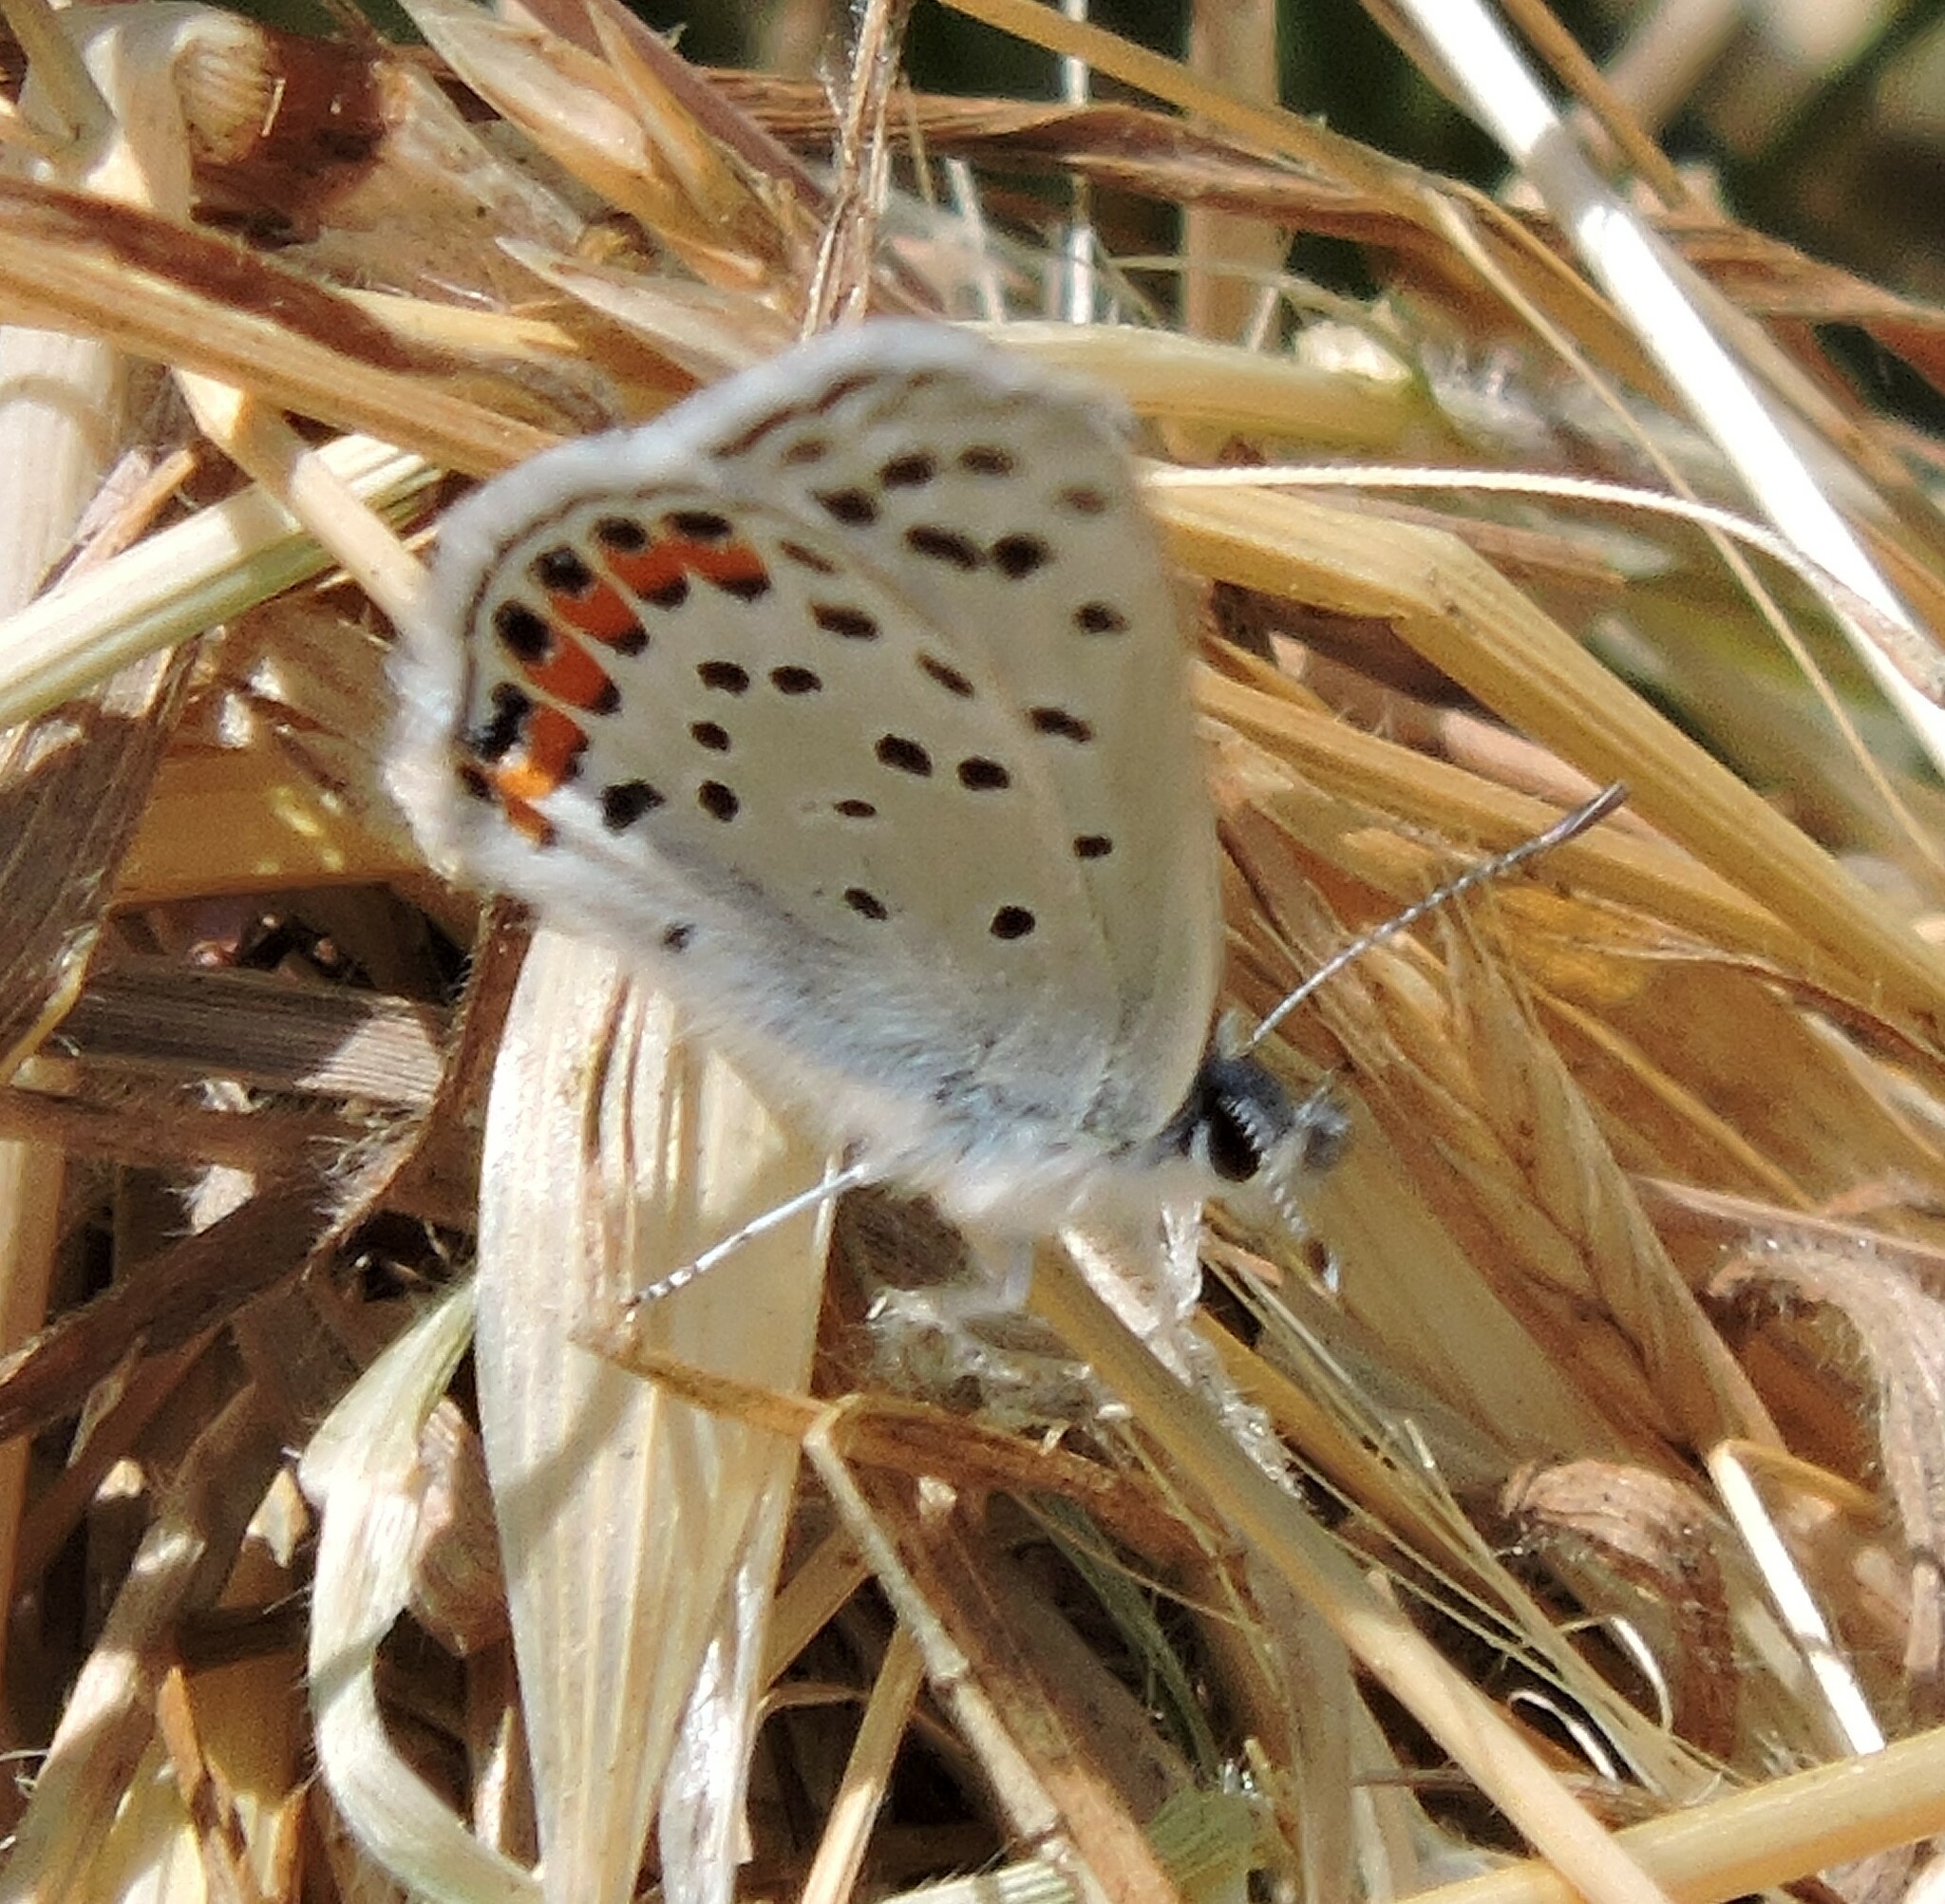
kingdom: Animalia
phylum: Arthropoda
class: Insecta
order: Lepidoptera
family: Lycaenidae
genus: Icaricia
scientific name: Icaricia acmon
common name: Acmon blue
